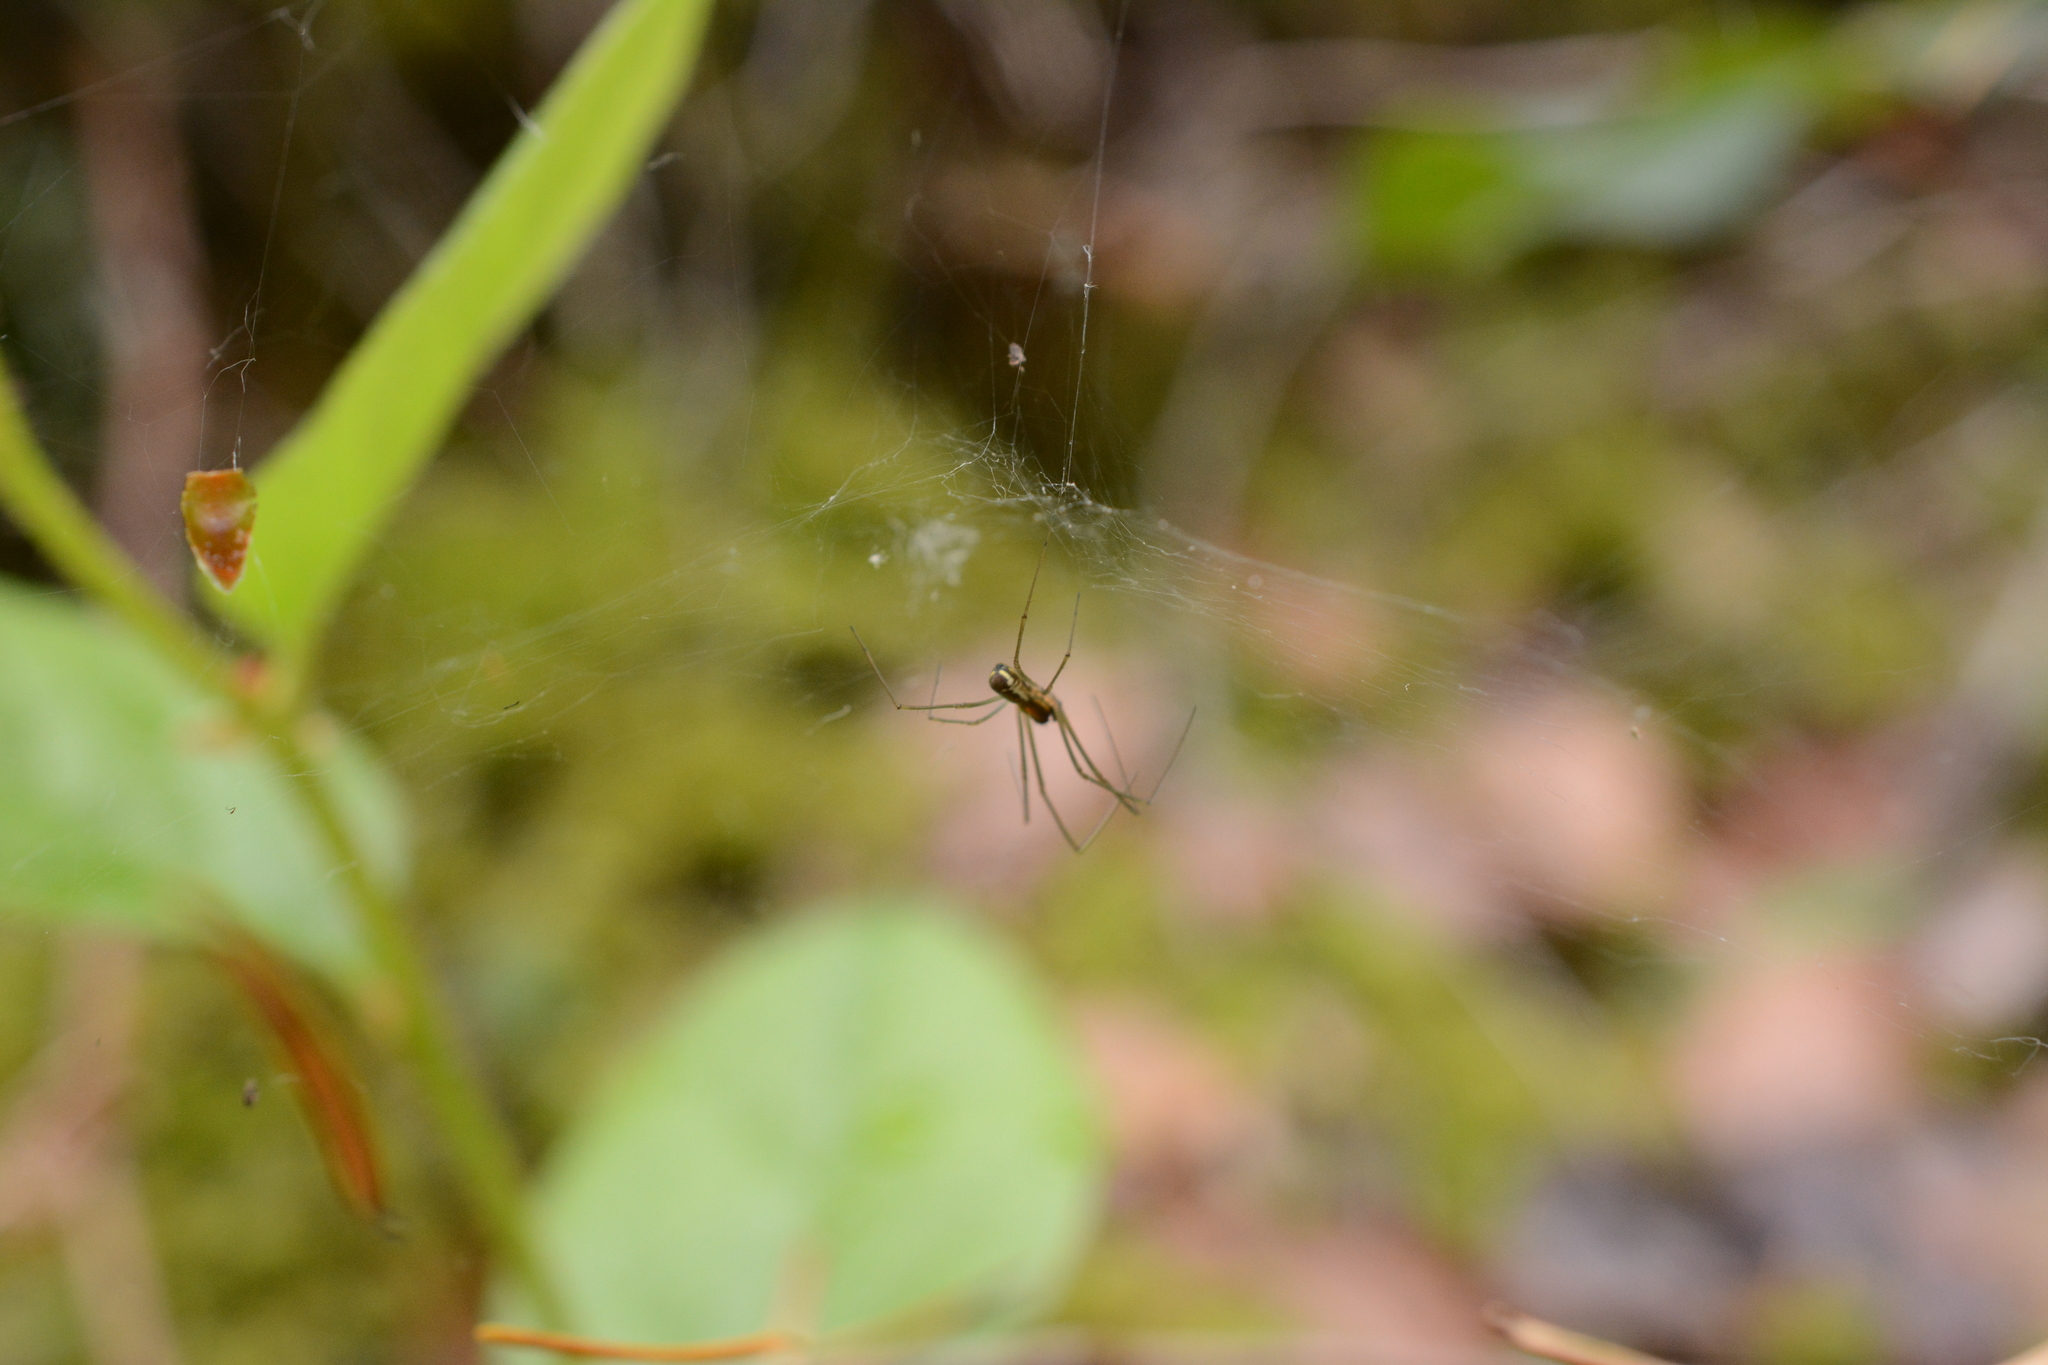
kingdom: Animalia
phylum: Arthropoda
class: Arachnida
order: Araneae
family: Linyphiidae
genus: Neriene
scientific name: Neriene radiata
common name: Filmy dome spider
